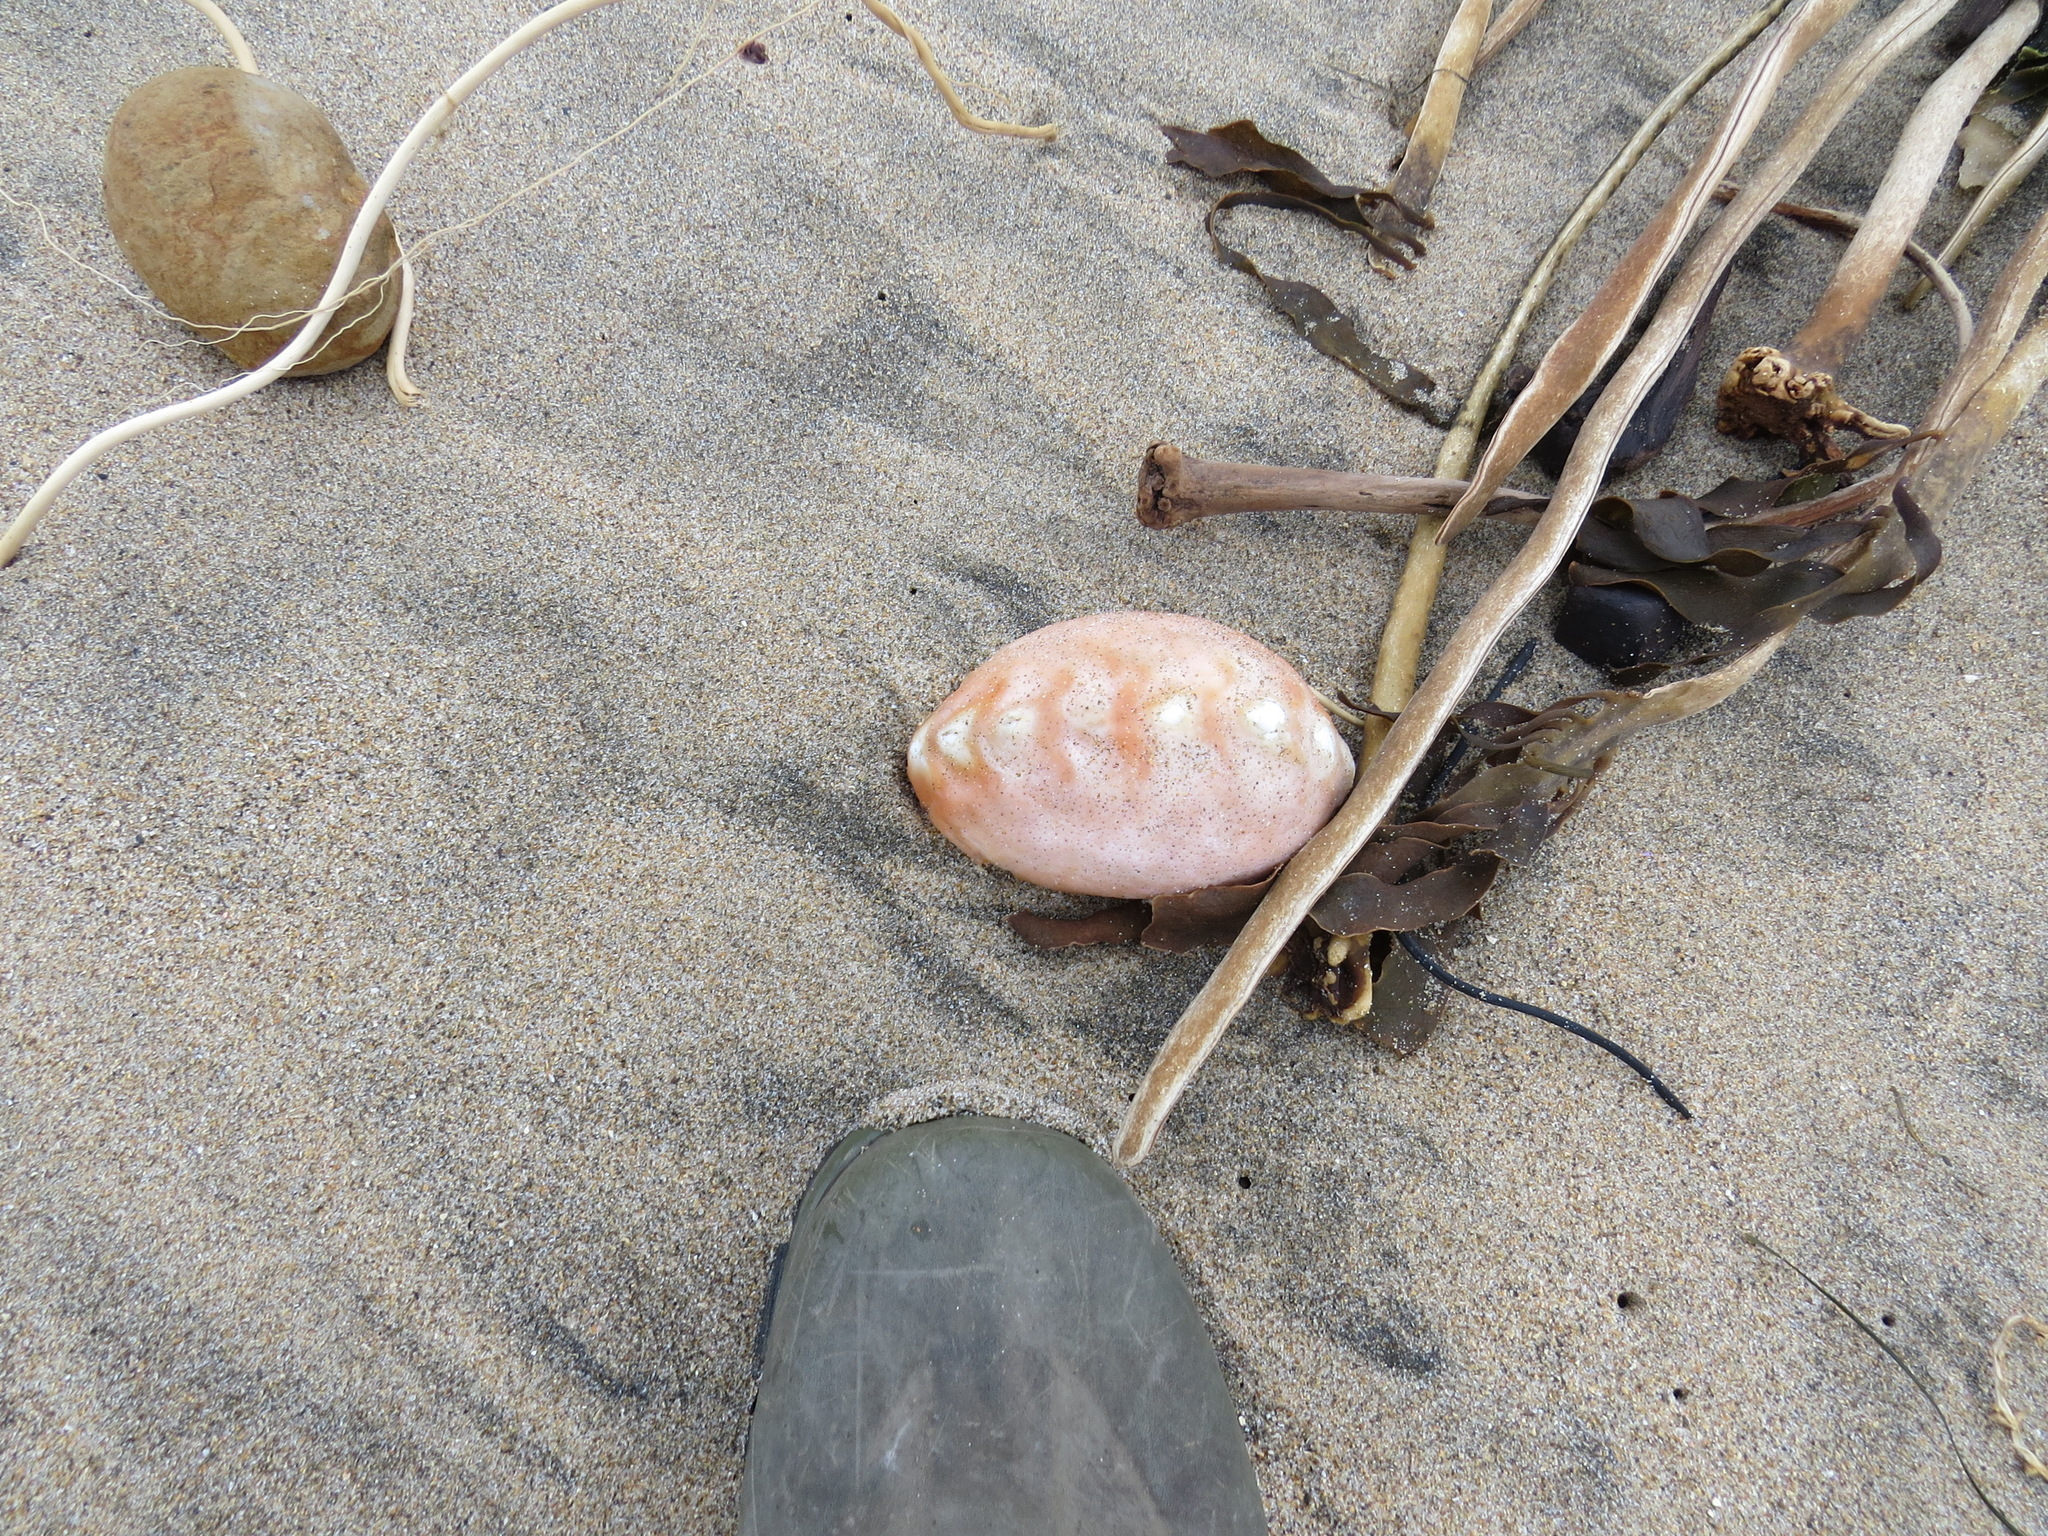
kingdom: Animalia
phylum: Mollusca
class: Polyplacophora
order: Chitonida
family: Acanthochitonidae
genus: Cryptochiton
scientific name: Cryptochiton stelleri
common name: Giant pacific chiton
